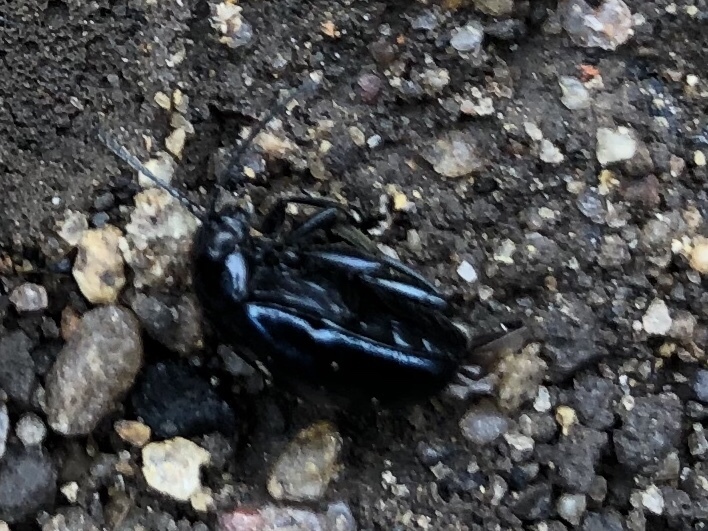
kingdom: Animalia
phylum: Arthropoda
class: Insecta
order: Coleoptera
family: Chrysomelidae
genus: Agelastica
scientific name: Agelastica alni
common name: Alder leaf beetle
